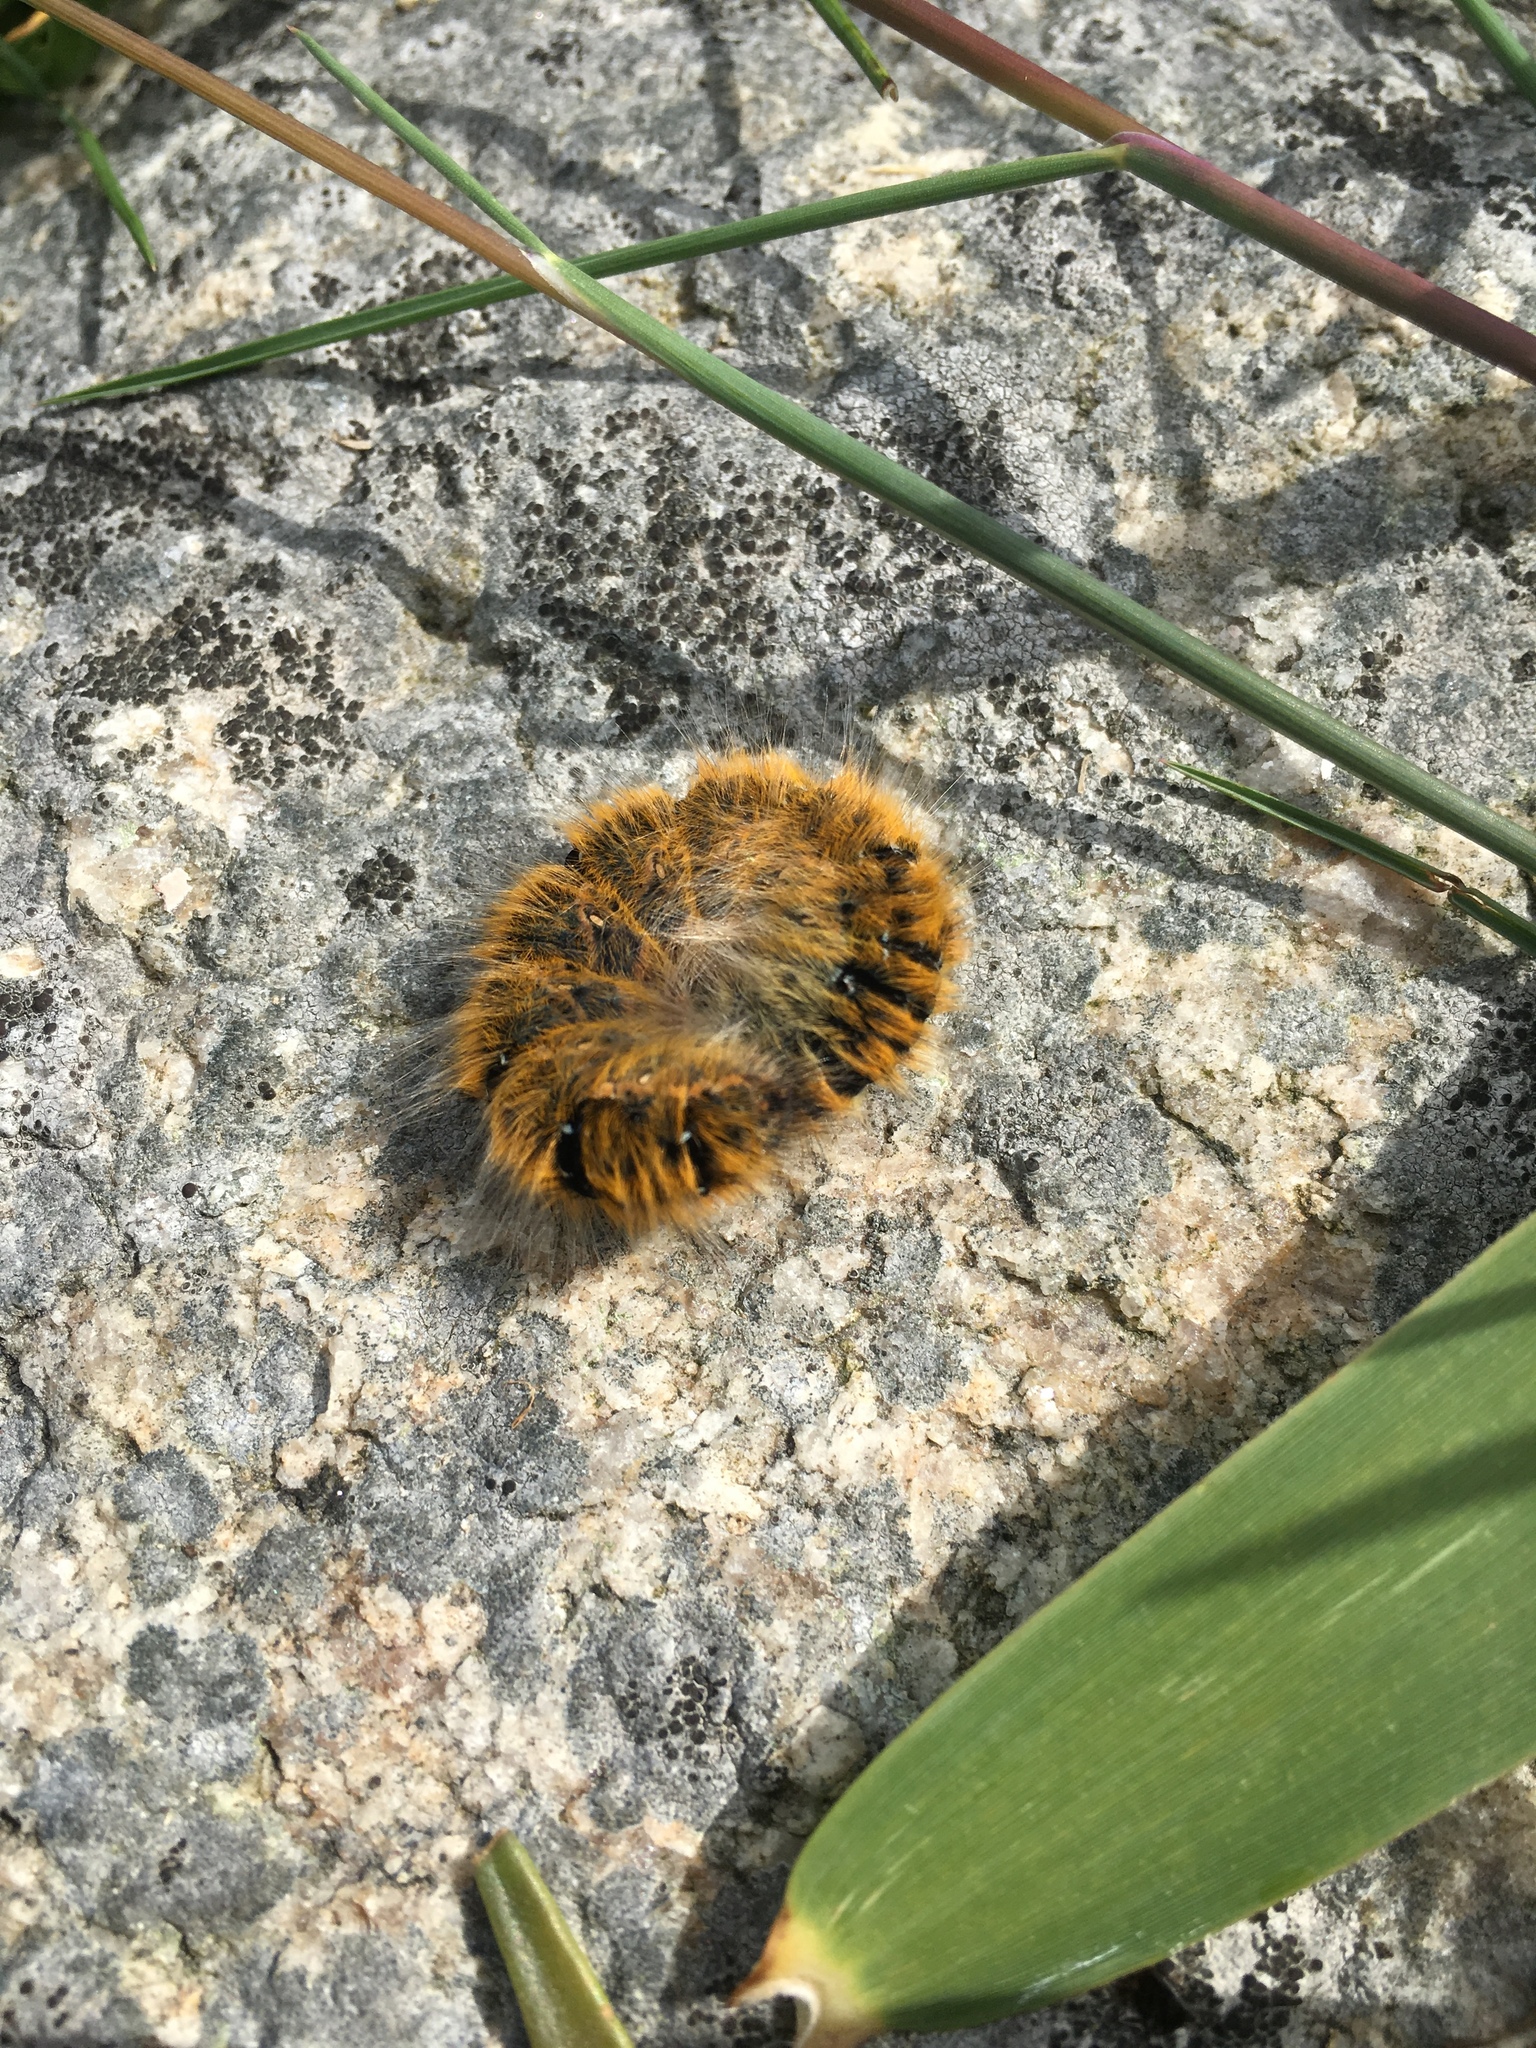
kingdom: Animalia
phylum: Arthropoda
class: Insecta
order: Lepidoptera
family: Lasiocampidae
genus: Lasiocampa
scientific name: Lasiocampa trifolii
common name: Grass eggar
